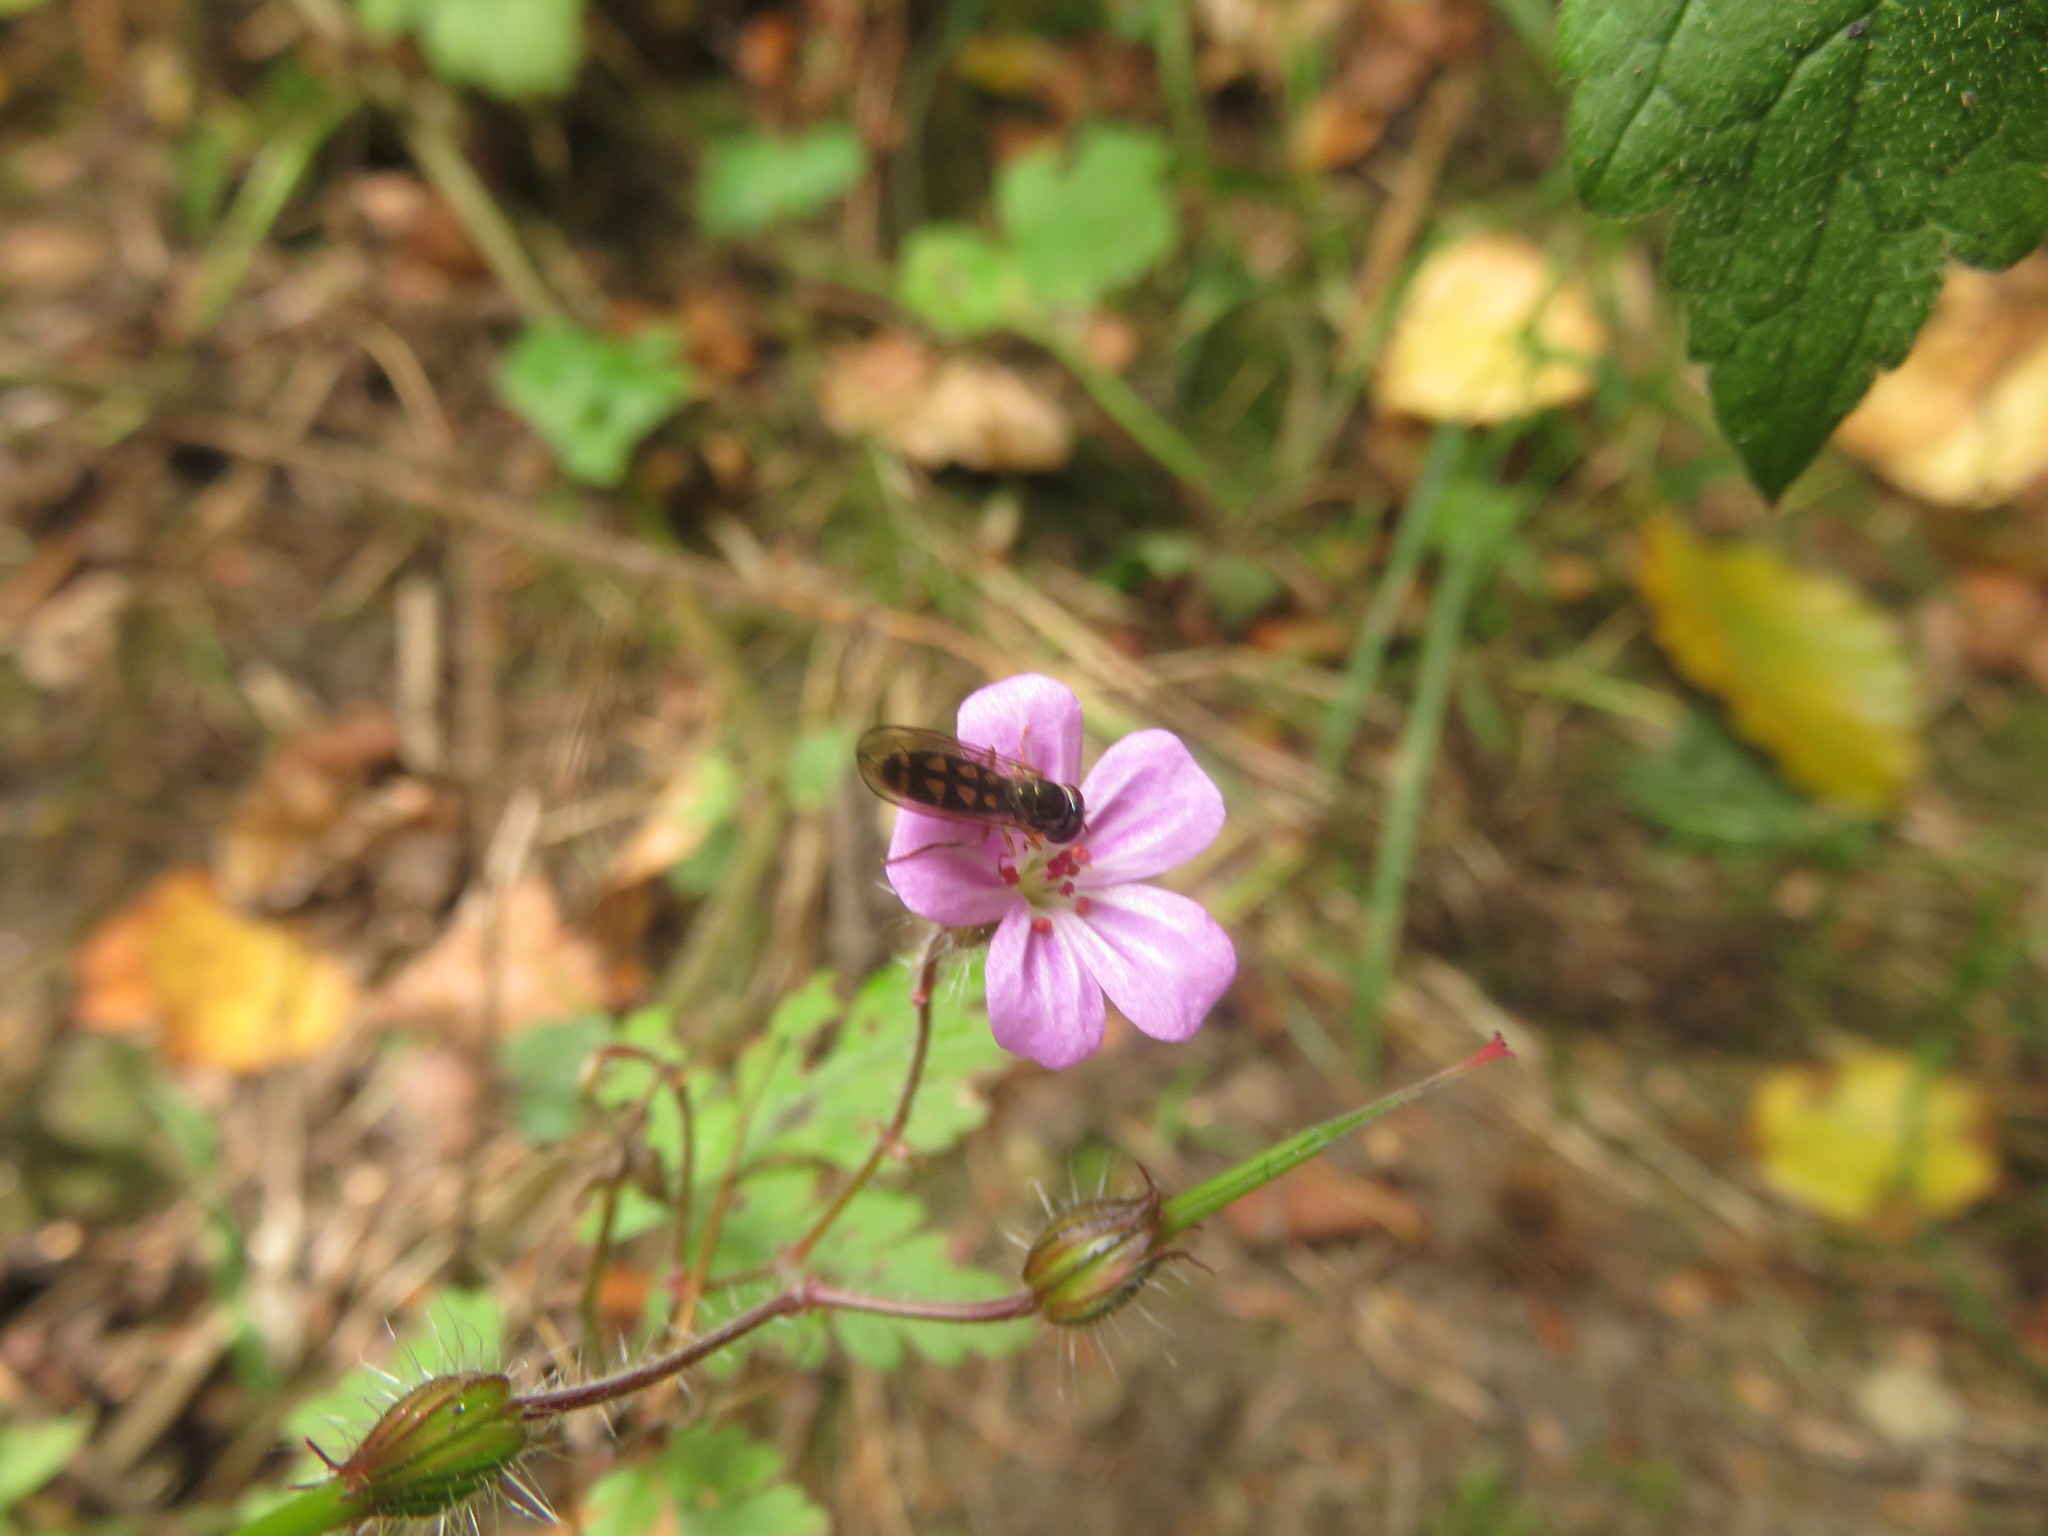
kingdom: Animalia
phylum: Arthropoda
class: Insecta
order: Diptera
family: Syrphidae
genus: Melanostoma
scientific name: Melanostoma scalare
